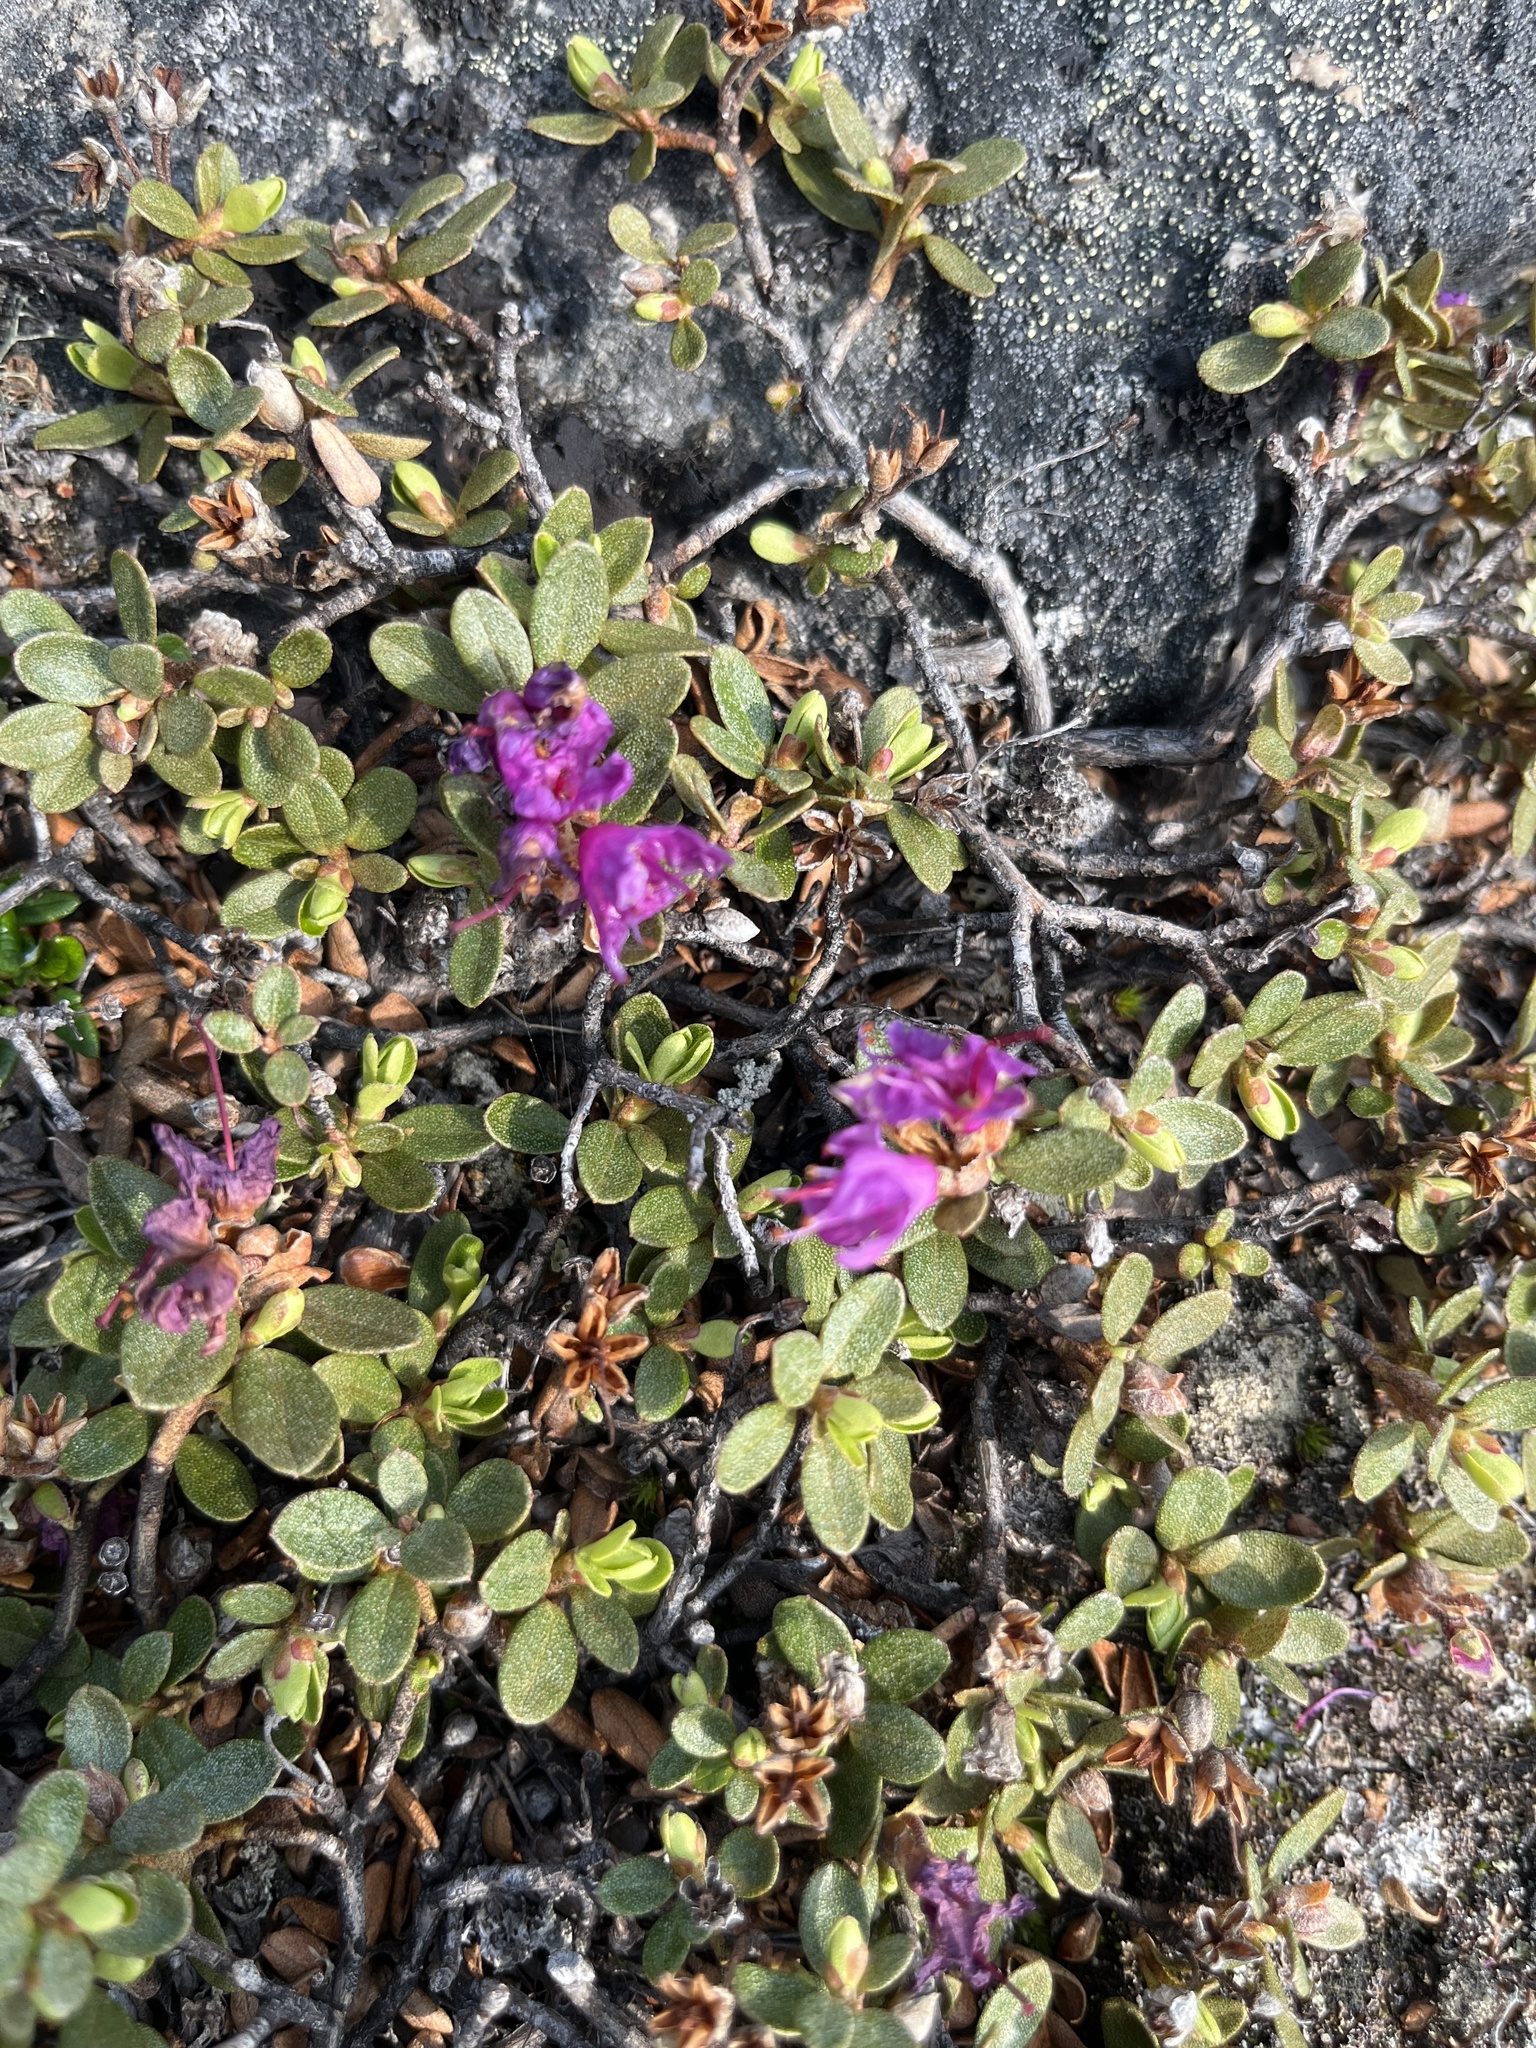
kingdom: Plantae
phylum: Tracheophyta
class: Magnoliopsida
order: Ericales
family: Ericaceae
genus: Rhododendron
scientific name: Rhododendron lapponicum
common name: Lapland rhododendron
